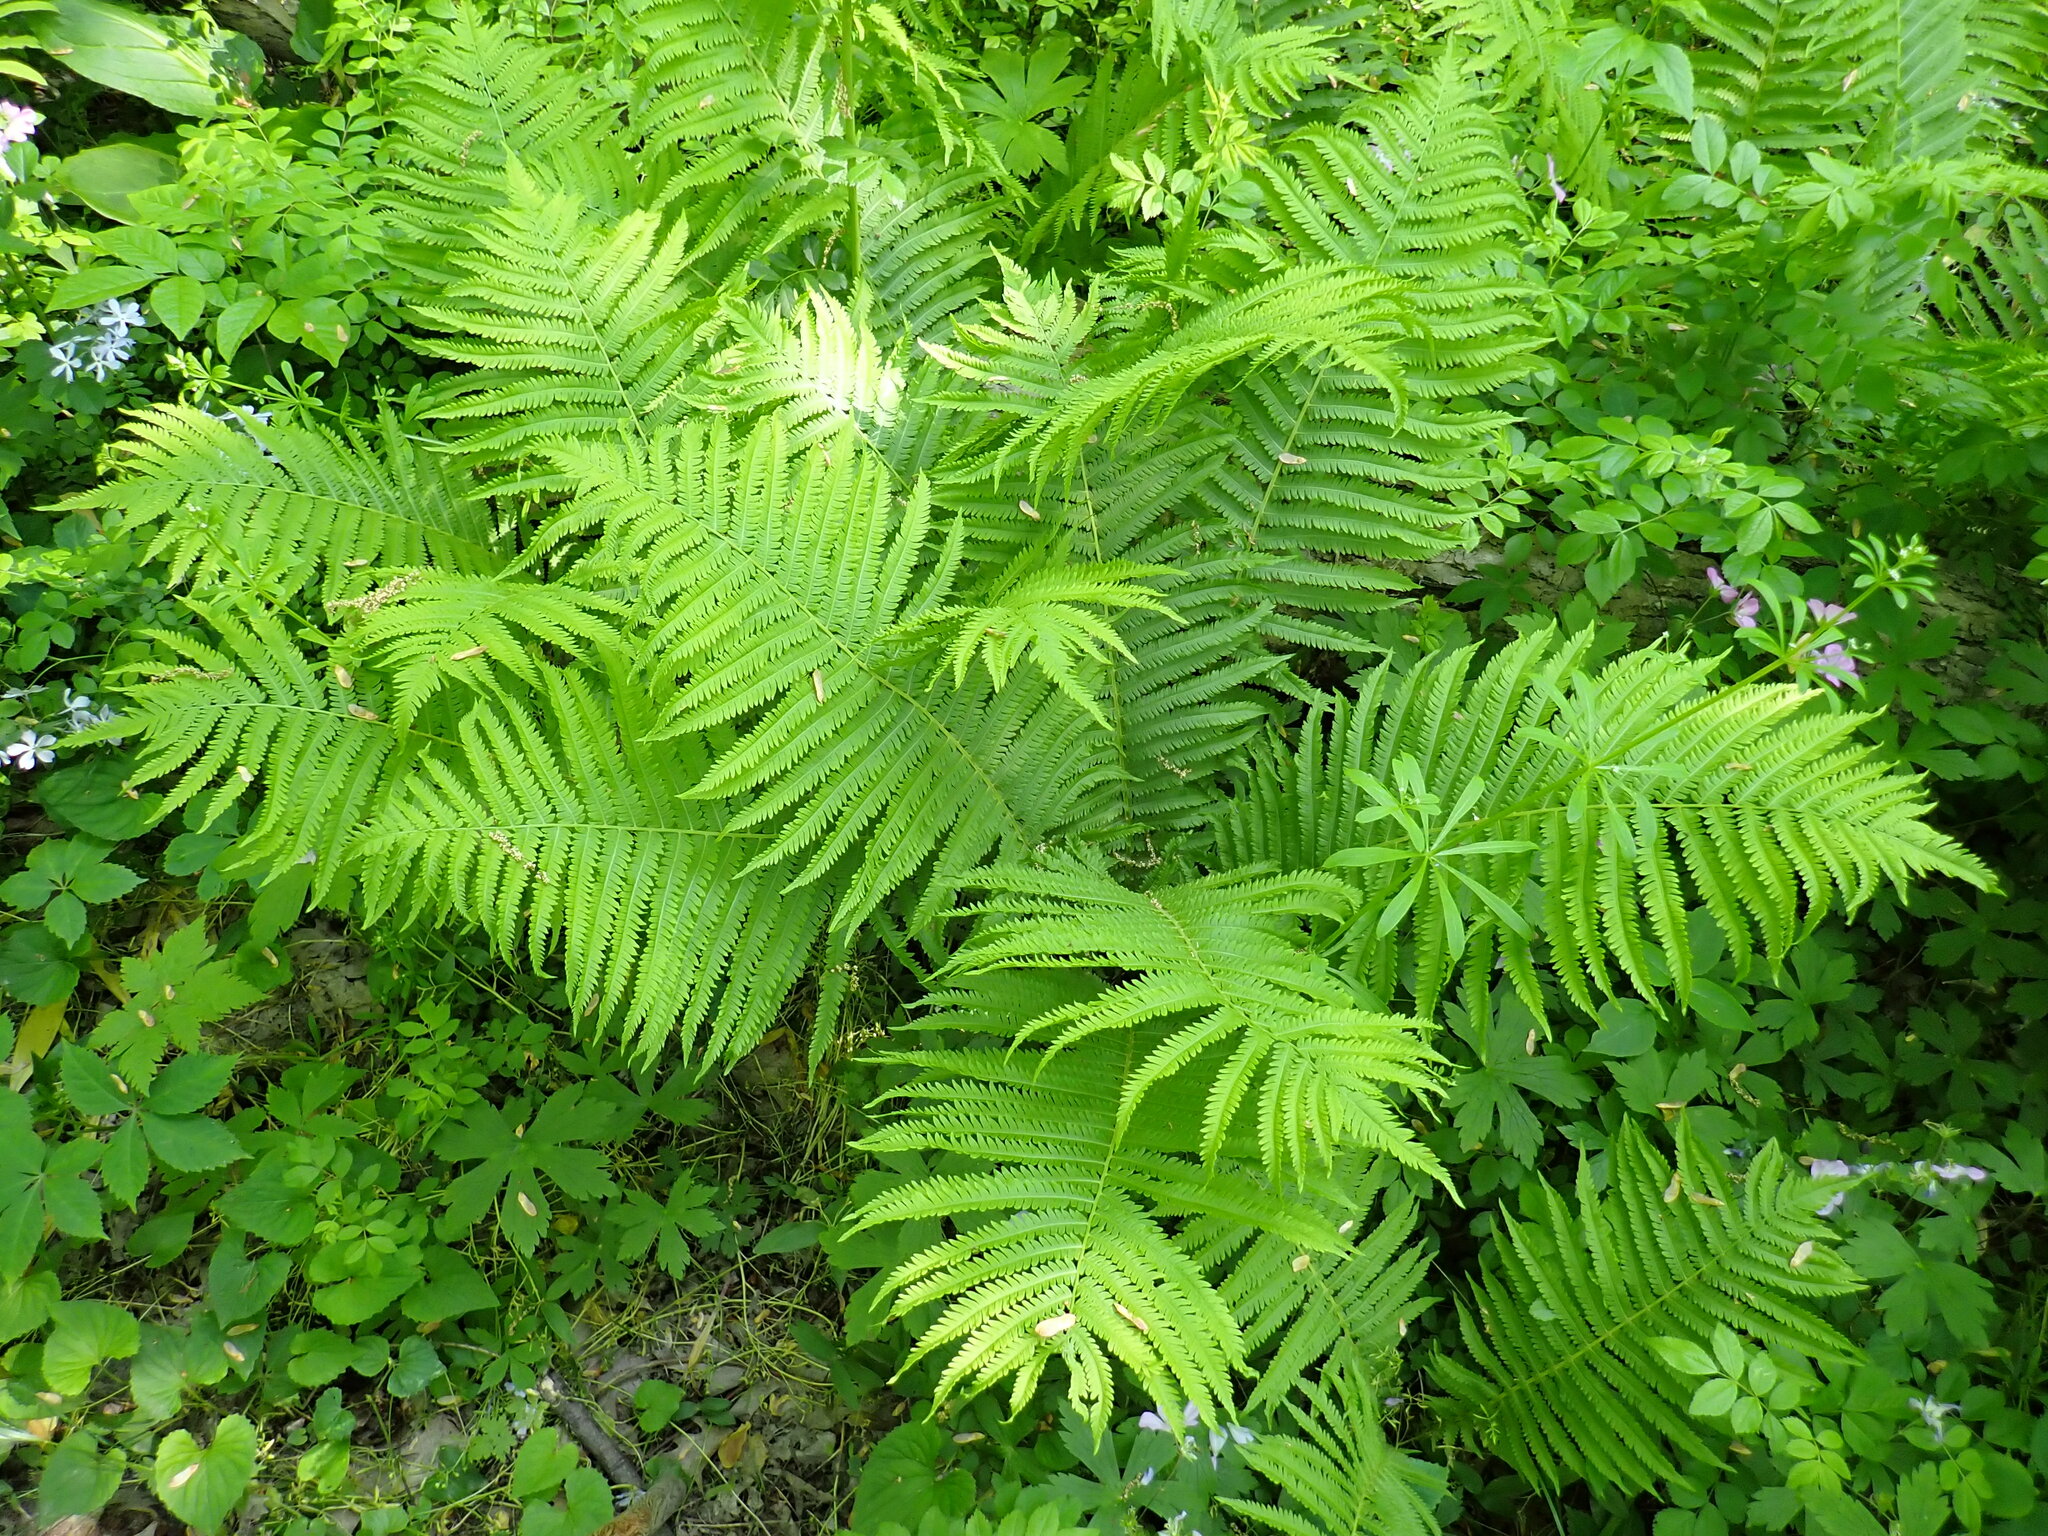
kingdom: Plantae
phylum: Tracheophyta
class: Polypodiopsida
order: Polypodiales
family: Onocleaceae
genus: Matteuccia
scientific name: Matteuccia struthiopteris
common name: Ostrich fern
